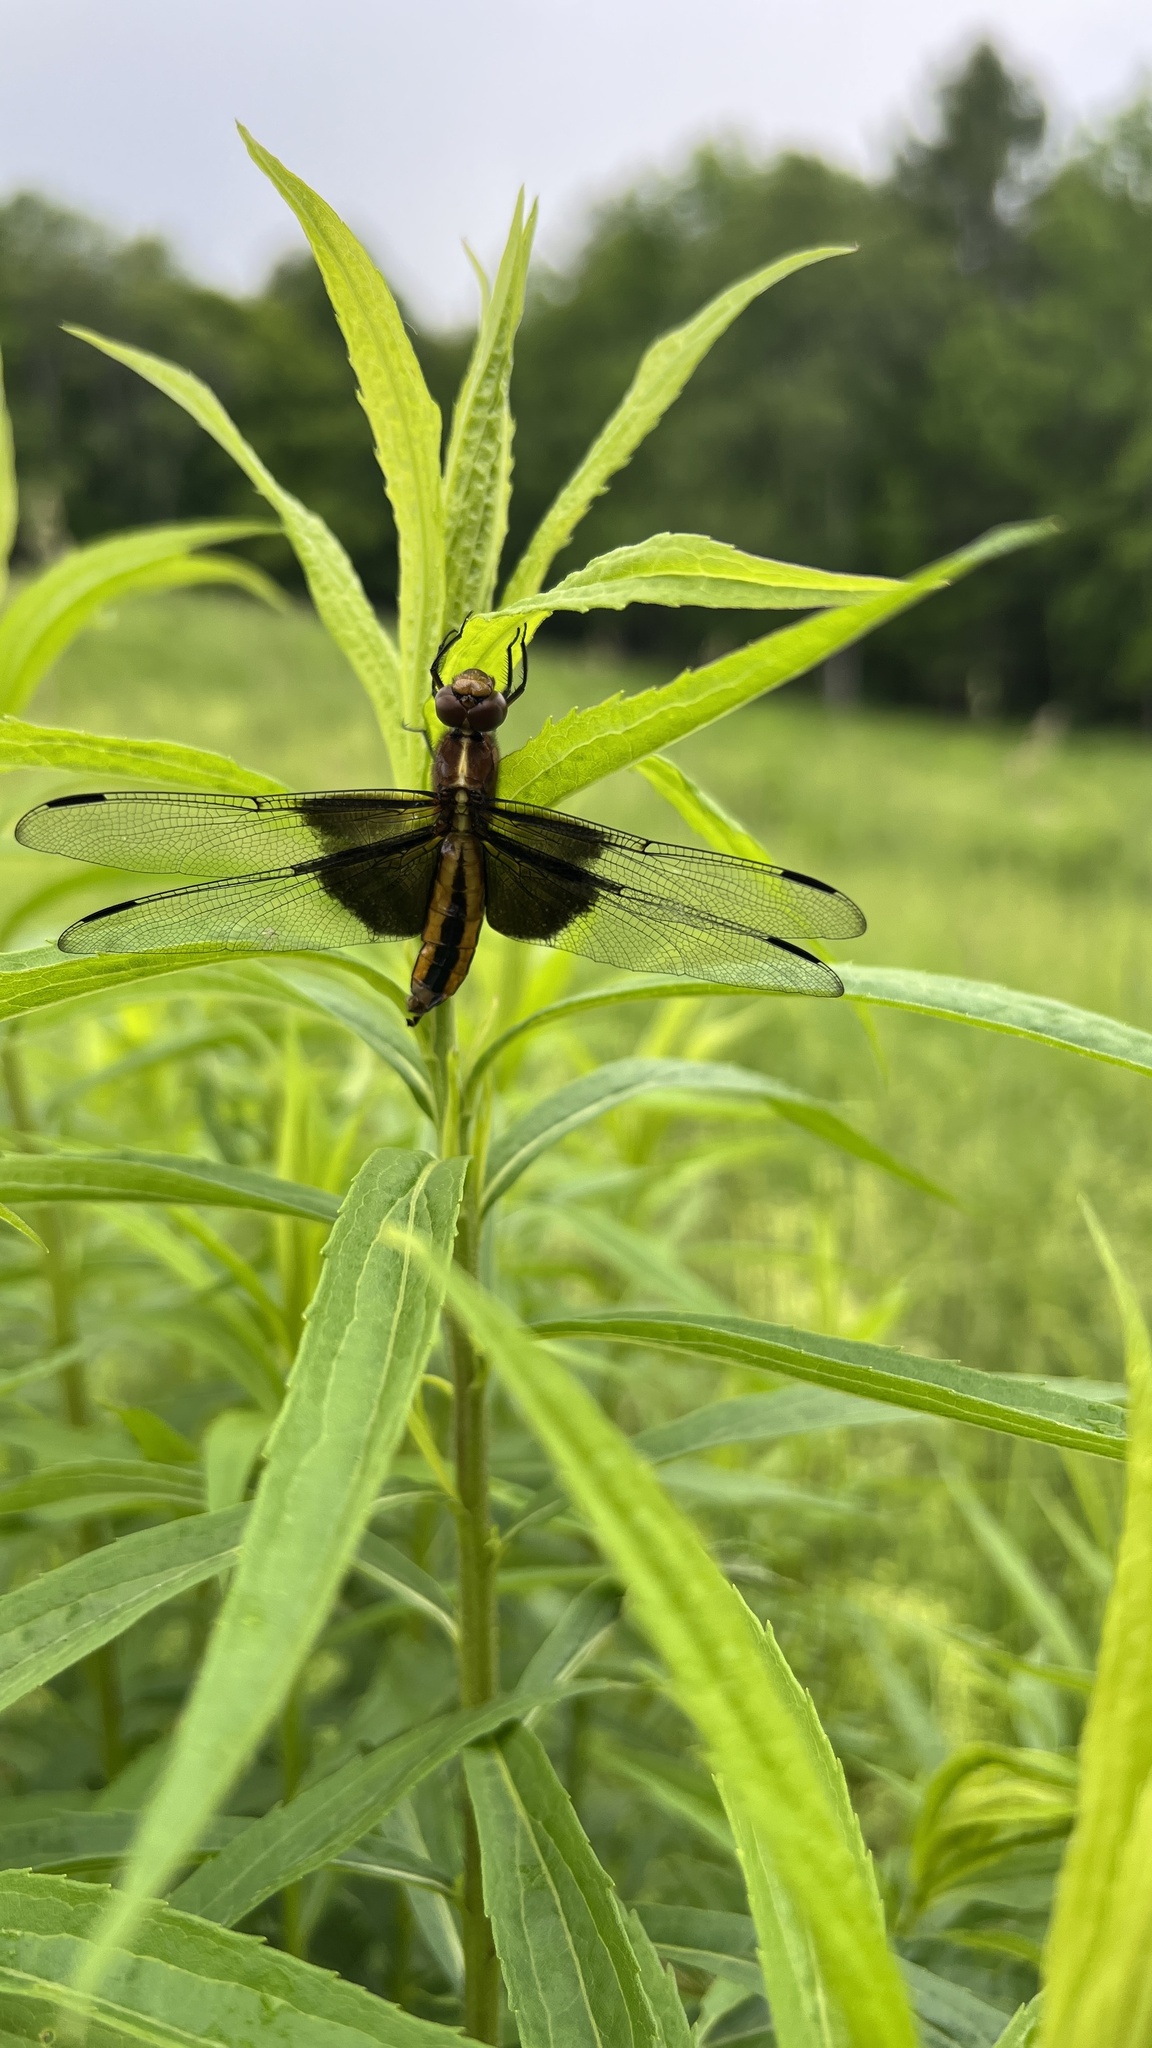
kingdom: Animalia
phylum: Arthropoda
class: Insecta
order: Odonata
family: Libellulidae
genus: Libellula
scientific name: Libellula luctuosa
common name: Widow skimmer
